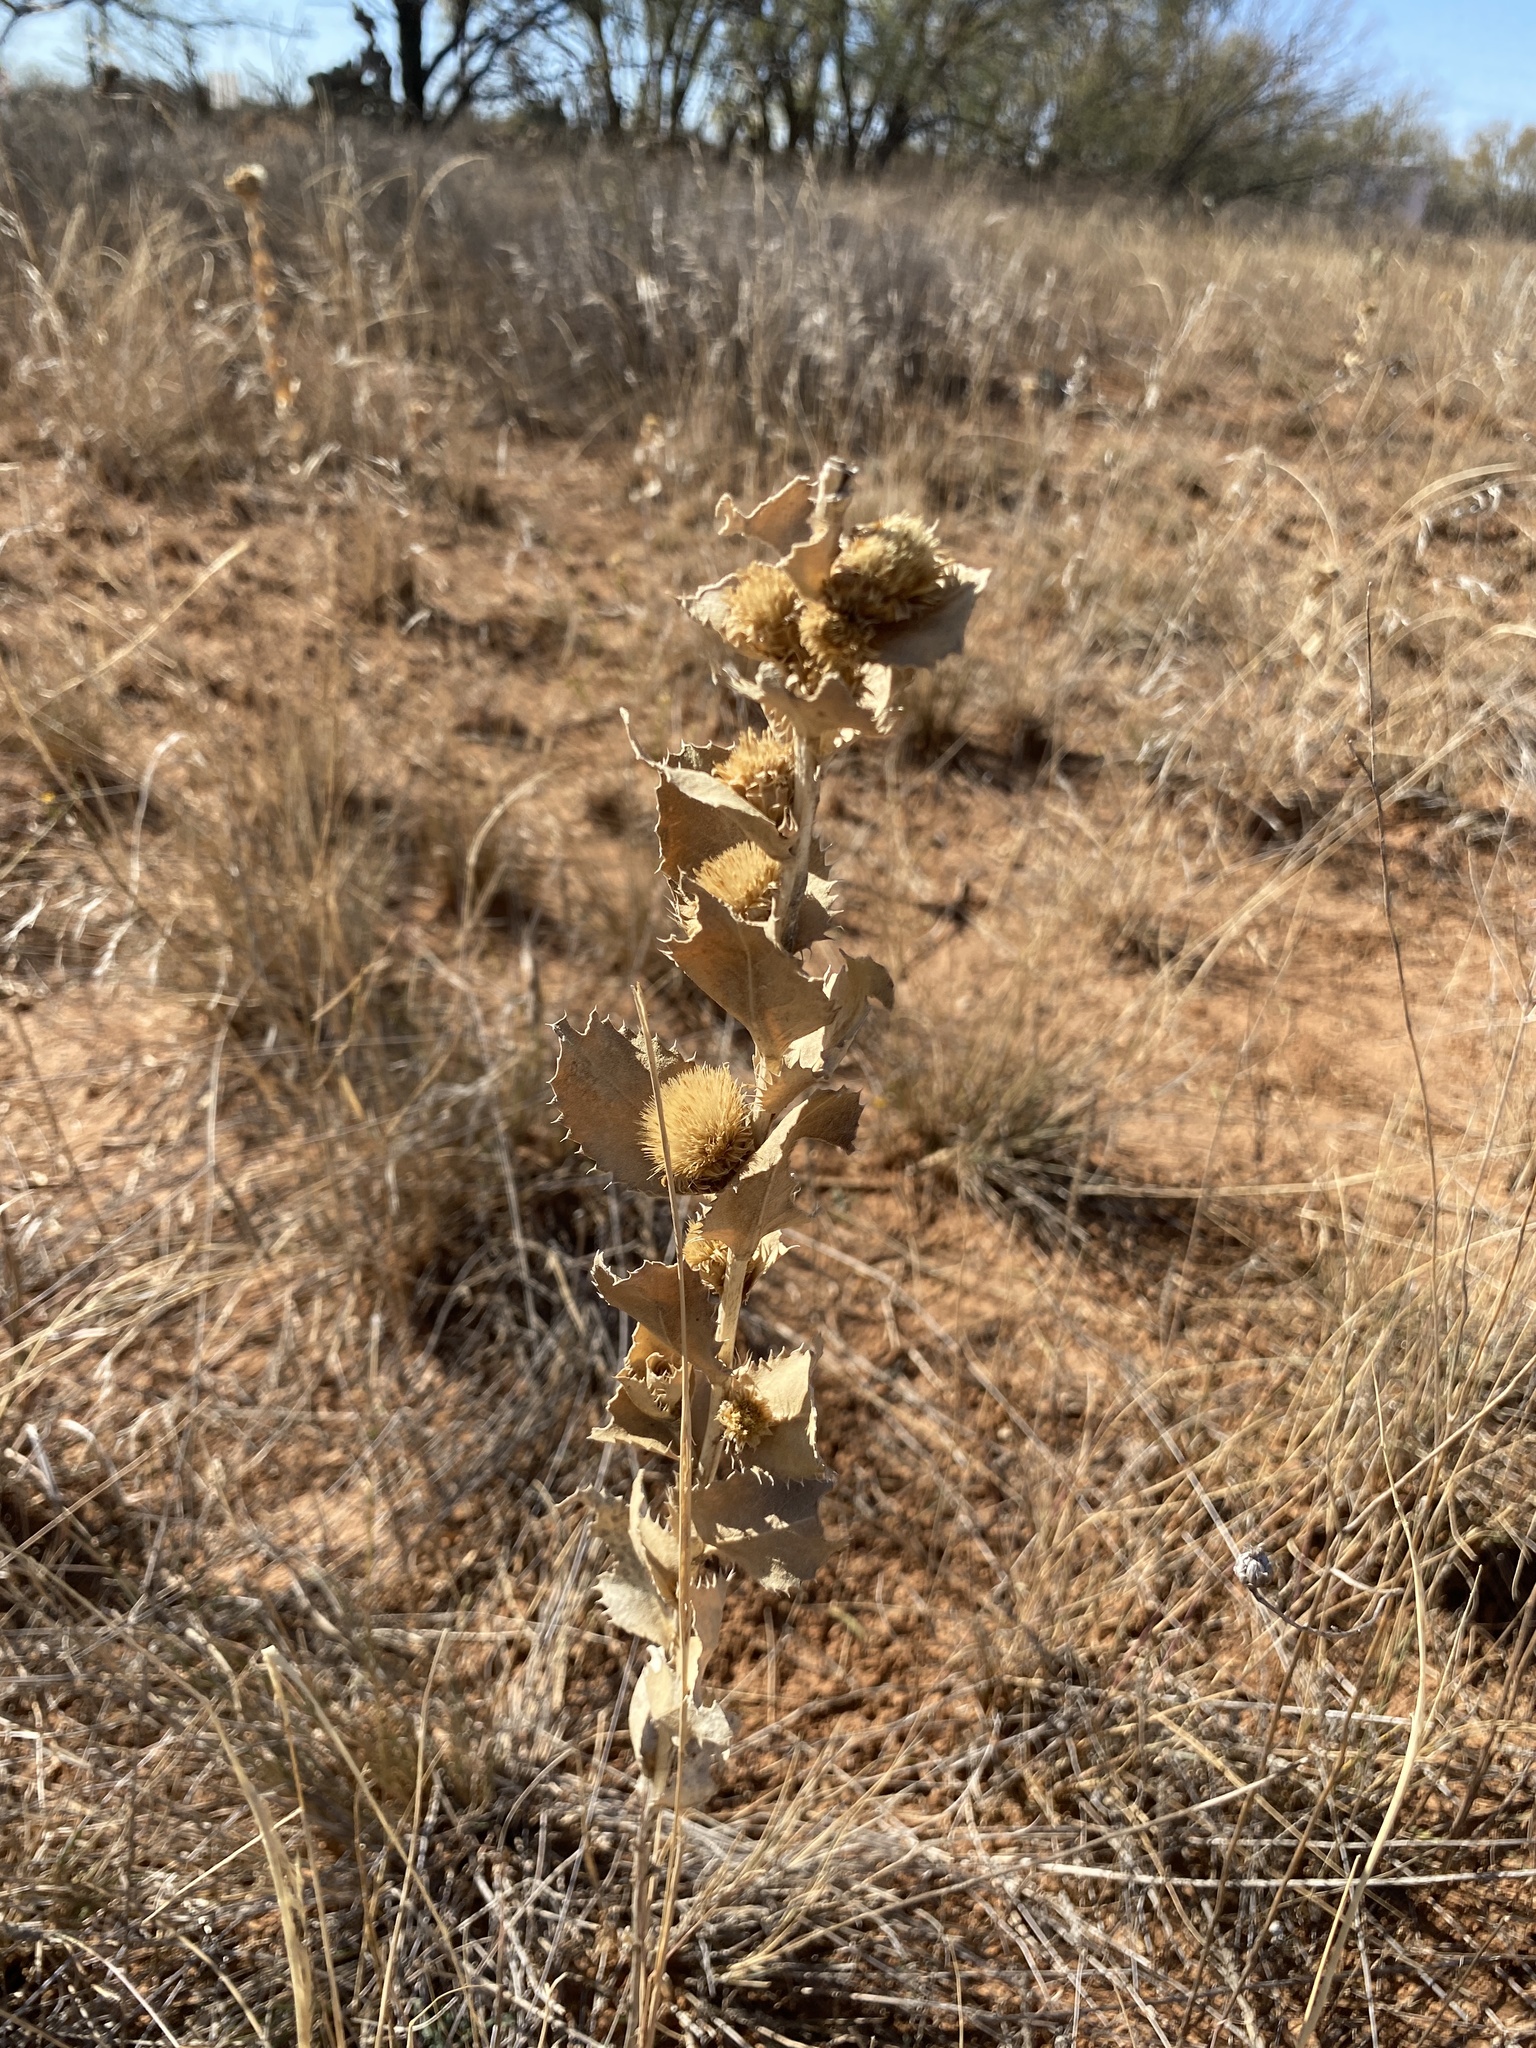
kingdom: Plantae
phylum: Tracheophyta
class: Magnoliopsida
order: Asterales
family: Asteraceae
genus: Grindelia
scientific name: Grindelia ciliata
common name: Goldenweed
